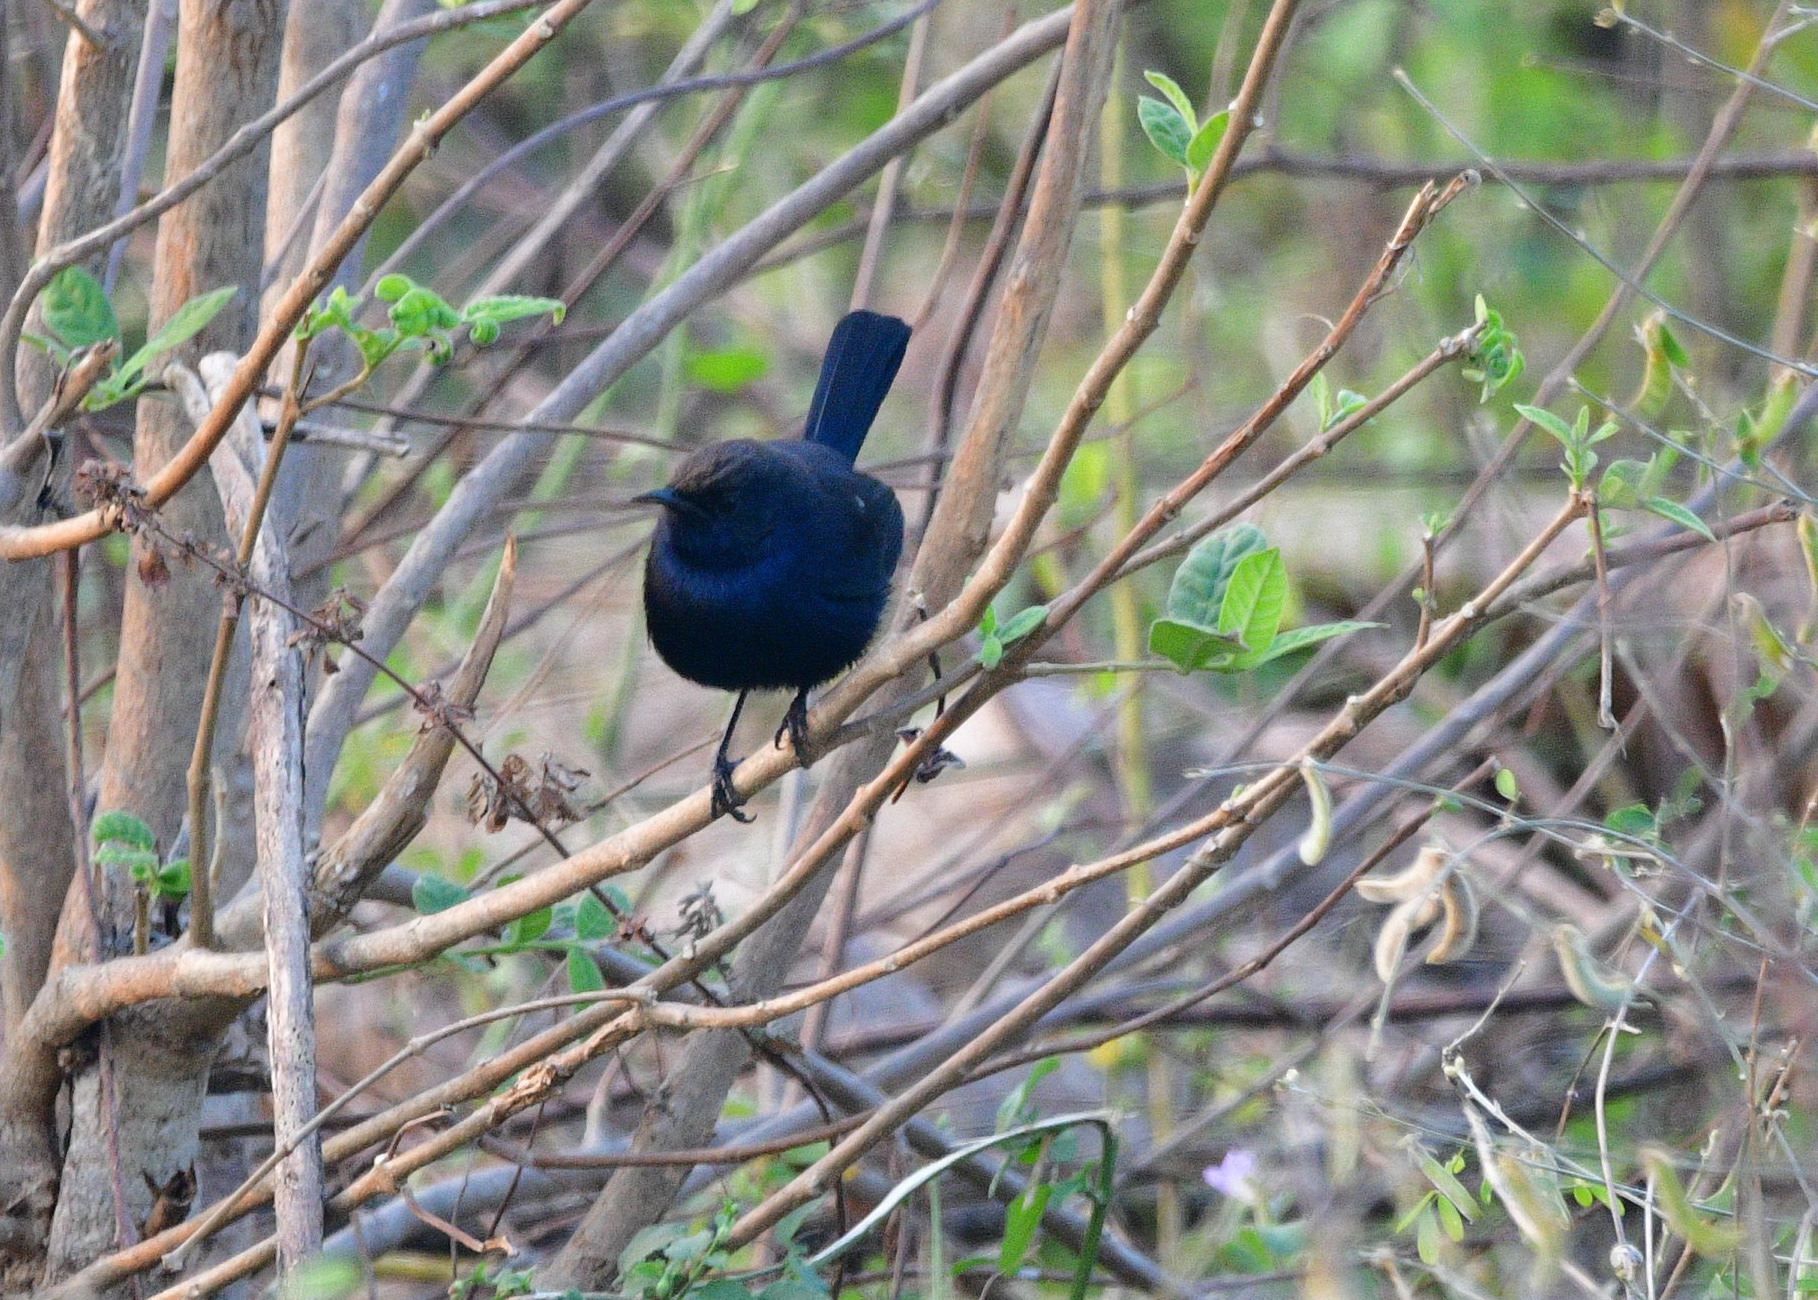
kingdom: Animalia
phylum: Chordata
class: Aves
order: Passeriformes
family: Muscicapidae
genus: Saxicoloides
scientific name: Saxicoloides fulicatus
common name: Indian robin
